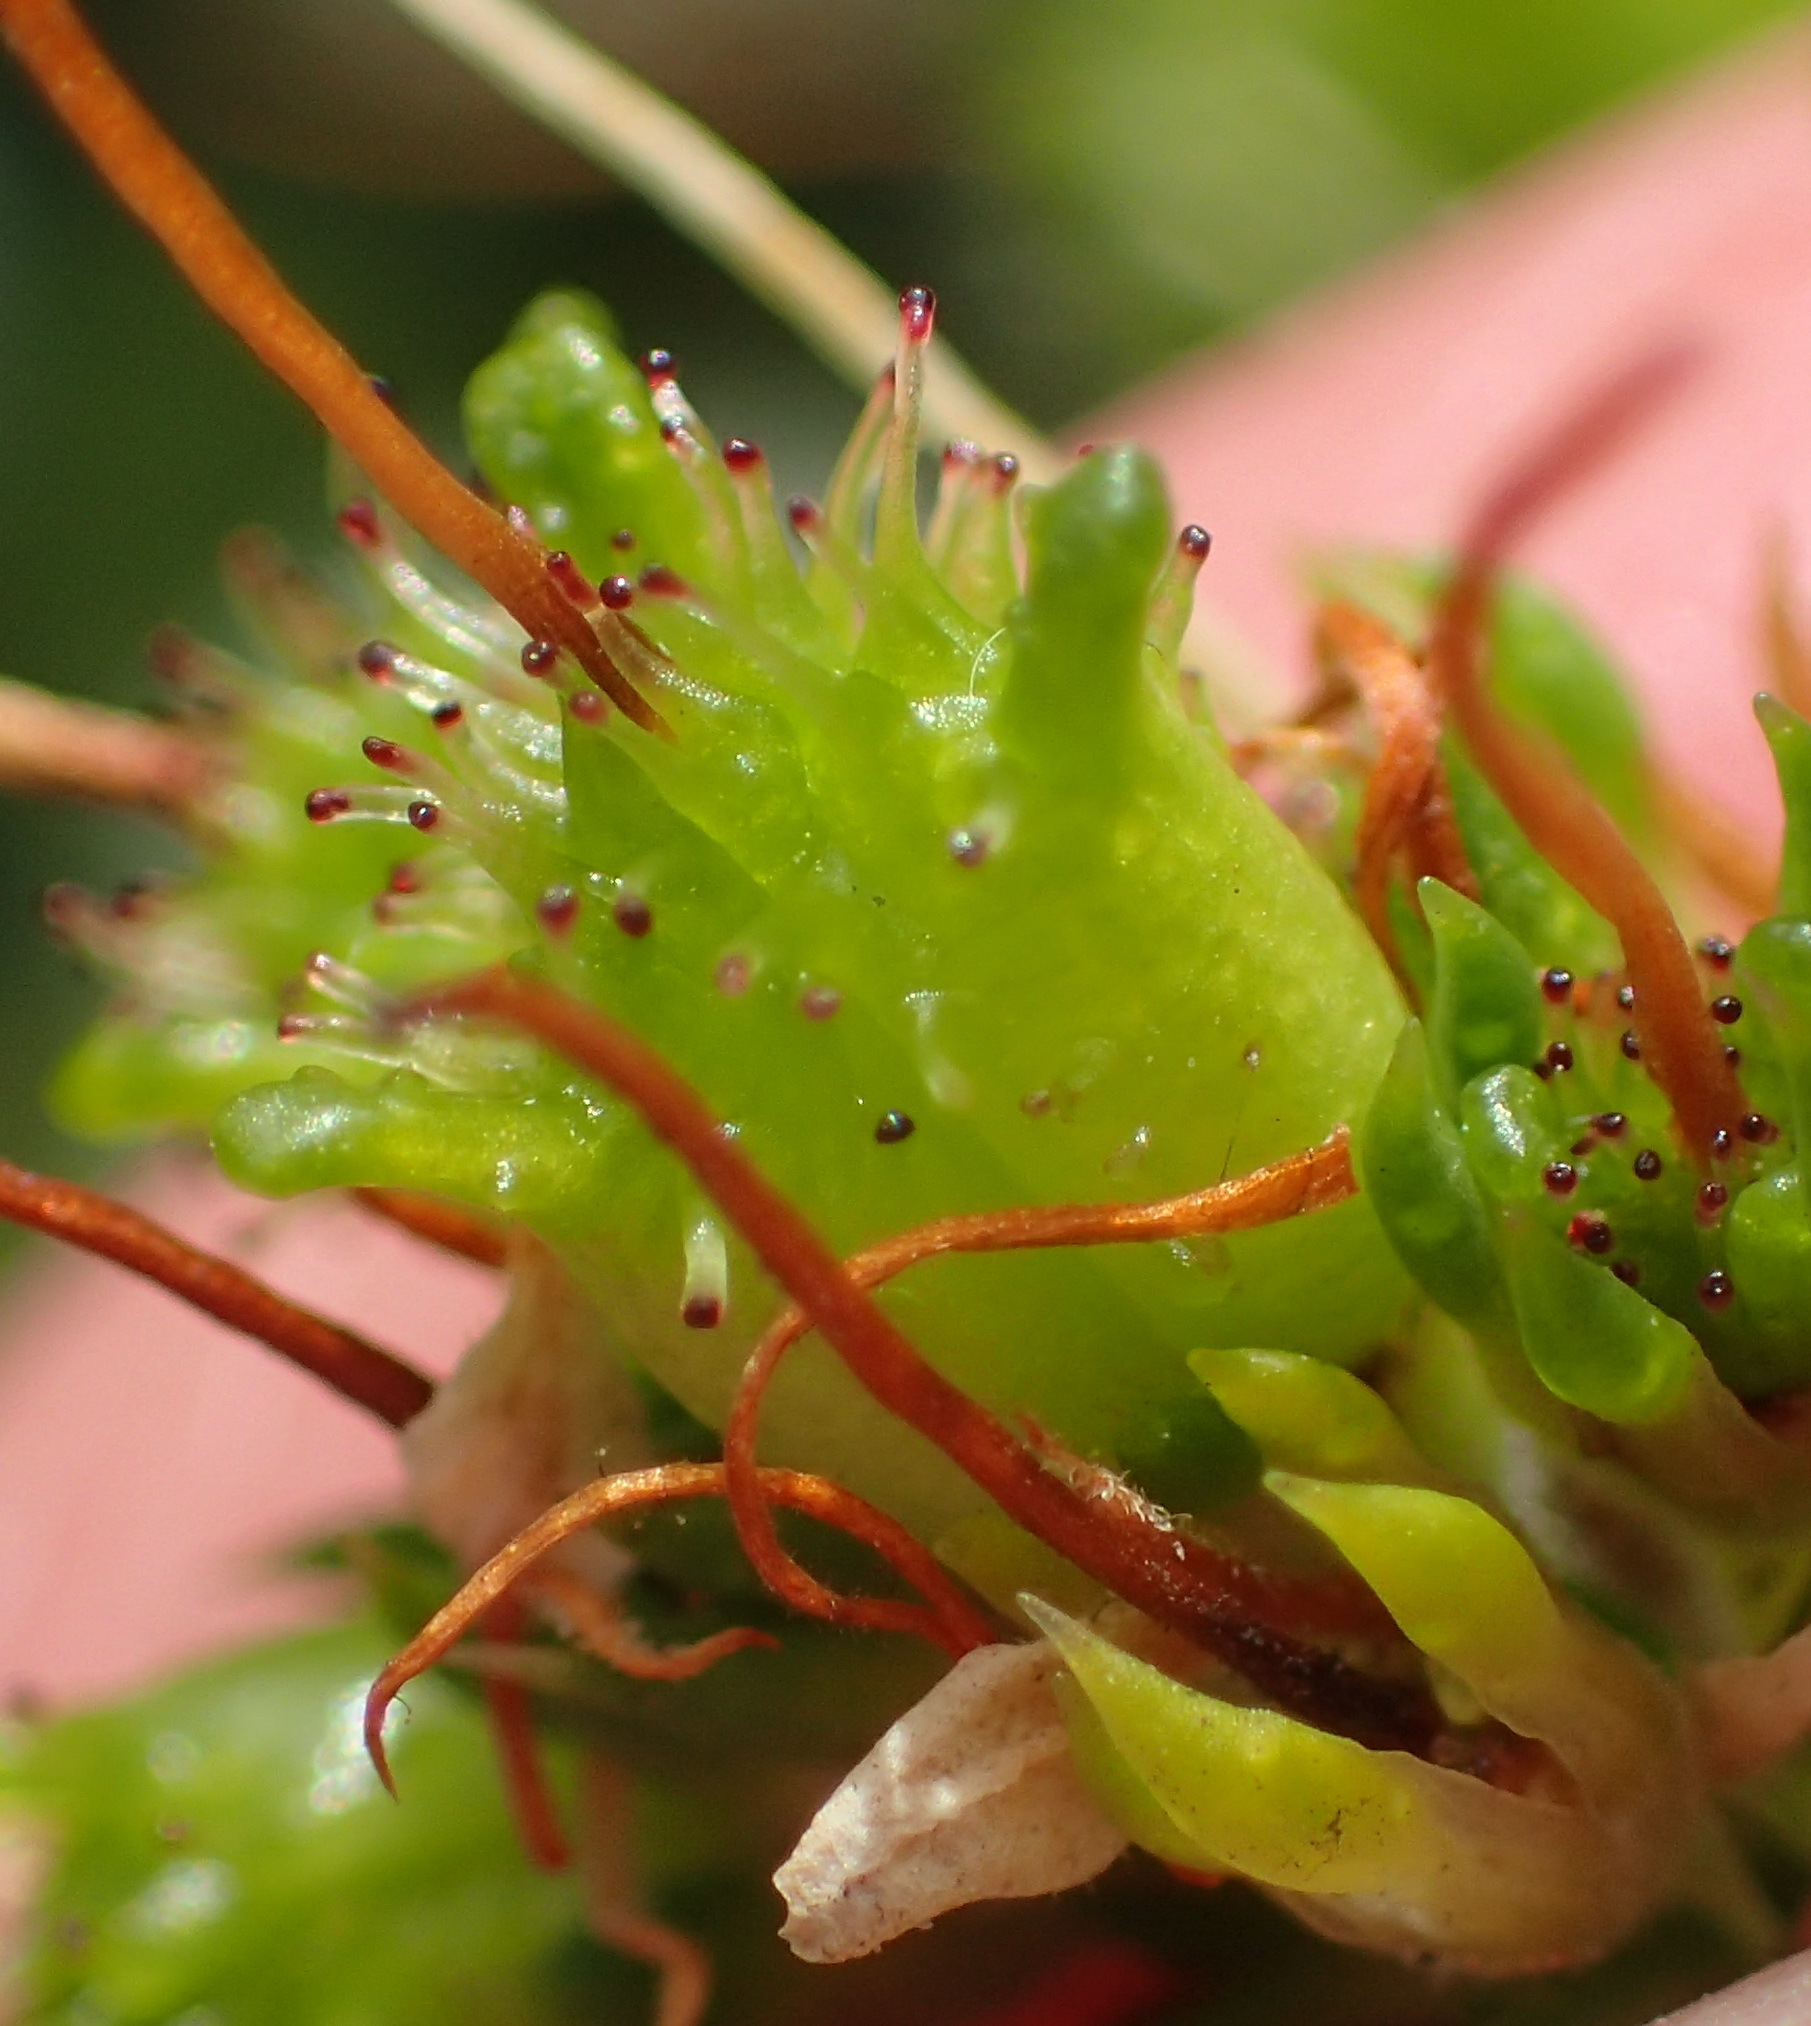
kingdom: Plantae
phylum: Tracheophyta
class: Magnoliopsida
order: Sapindales
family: Rutaceae
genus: Agathosma
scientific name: Agathosma apiculata
